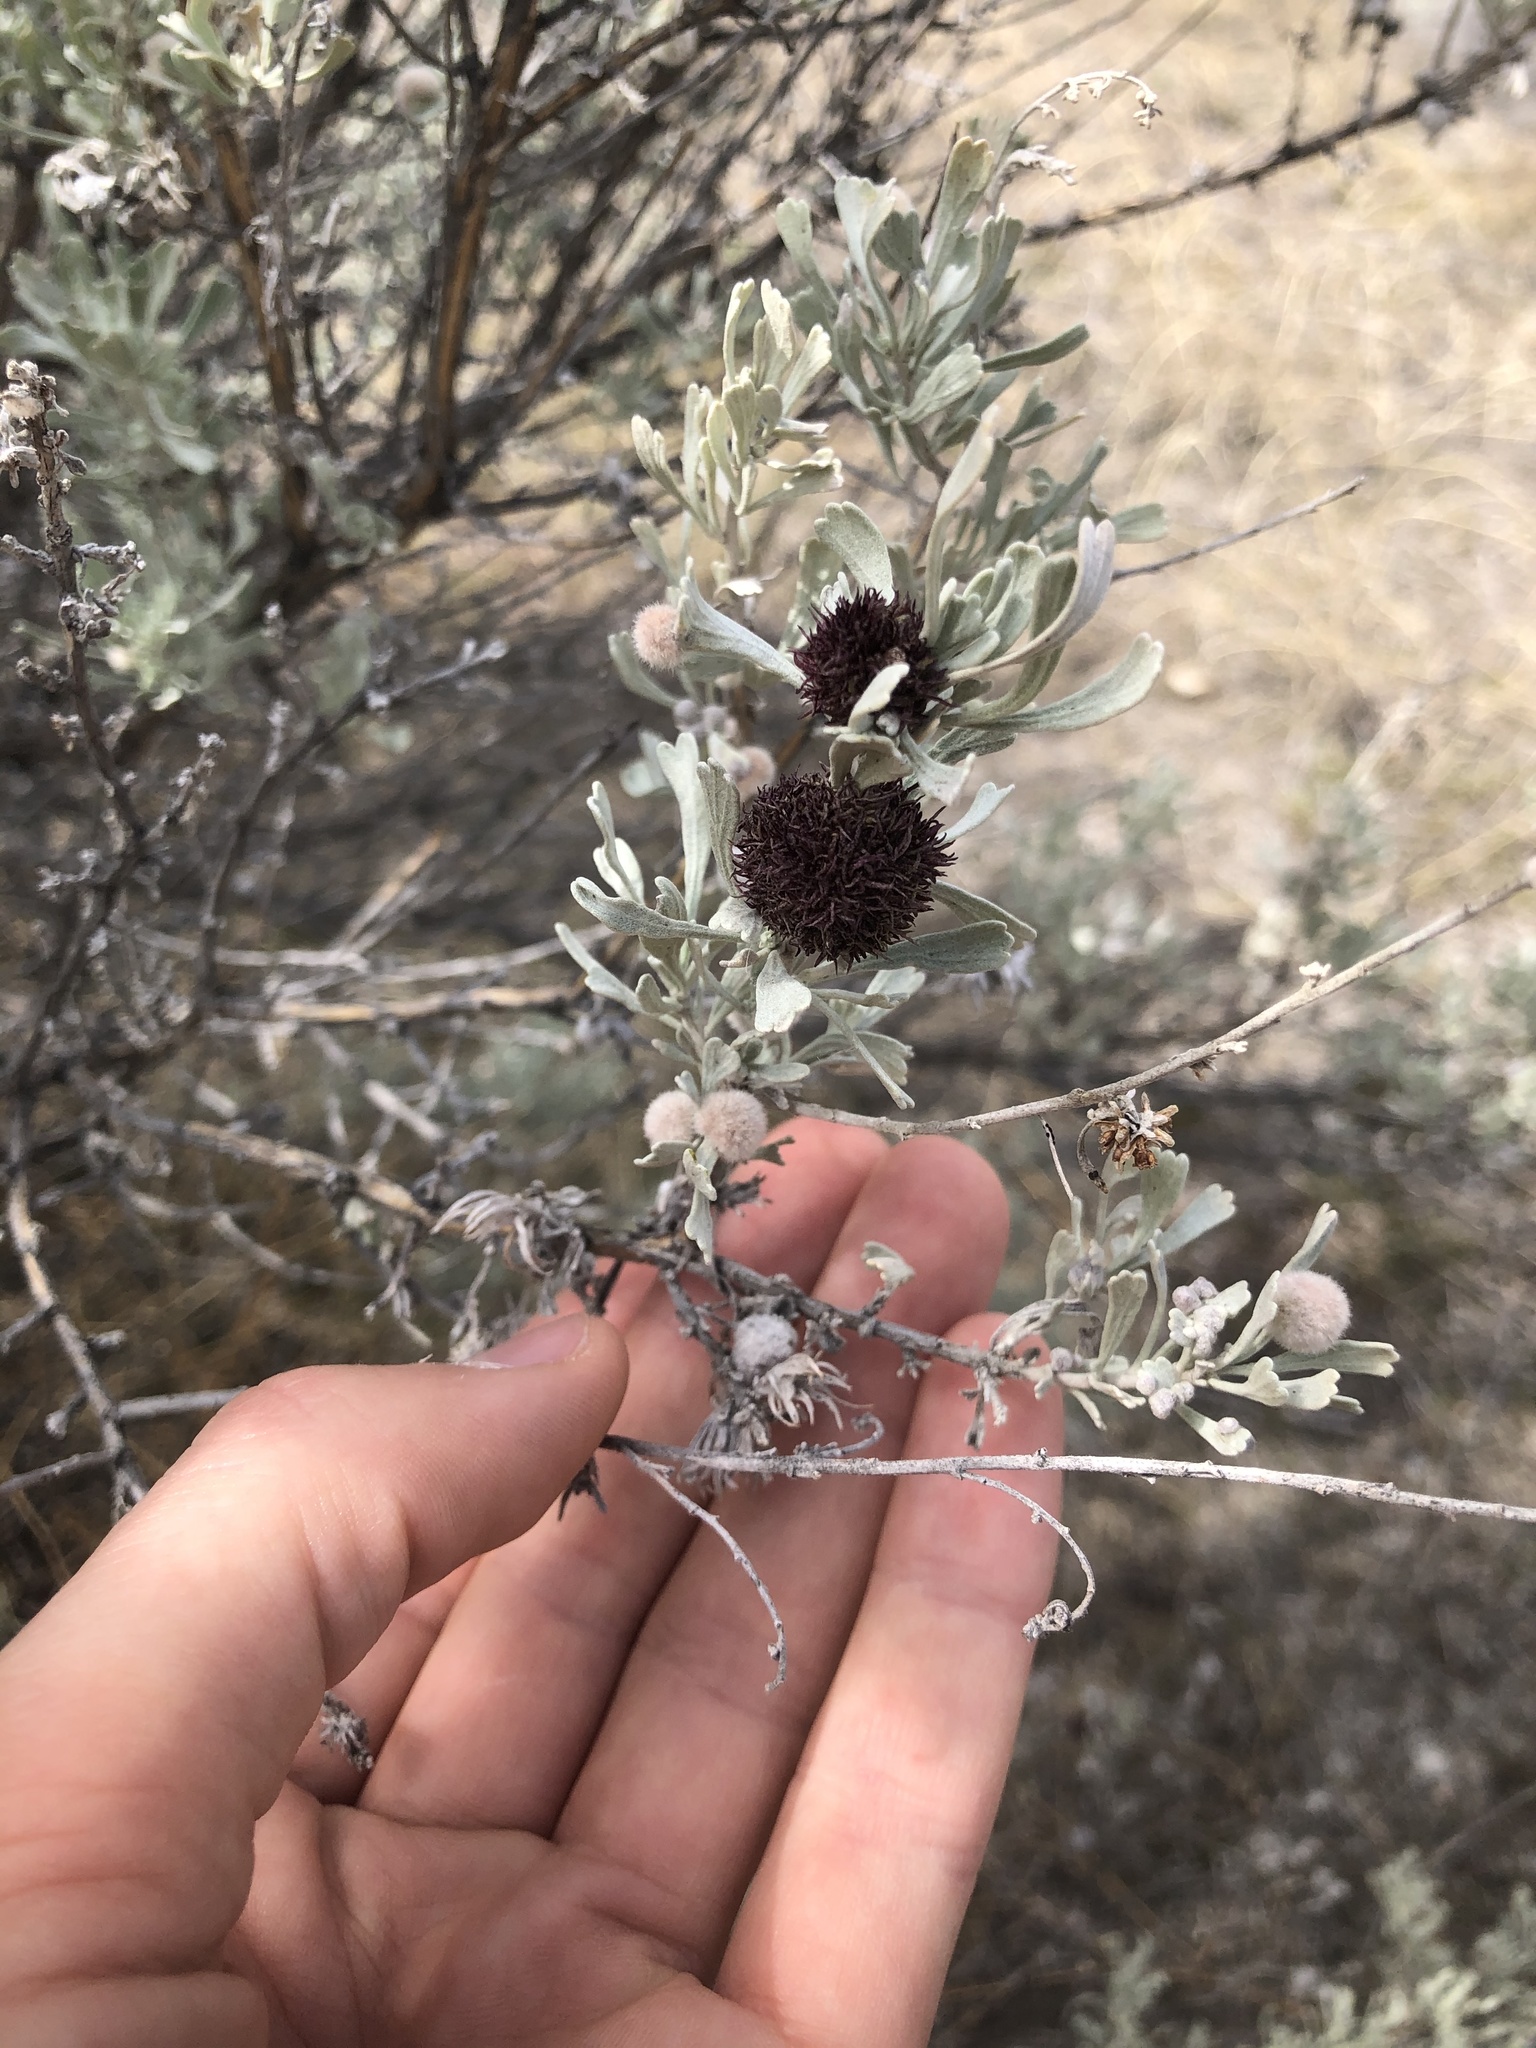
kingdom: Animalia
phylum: Arthropoda
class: Insecta
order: Diptera
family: Cecidomyiidae
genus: Rhopalomyia
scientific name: Rhopalomyia medusa
